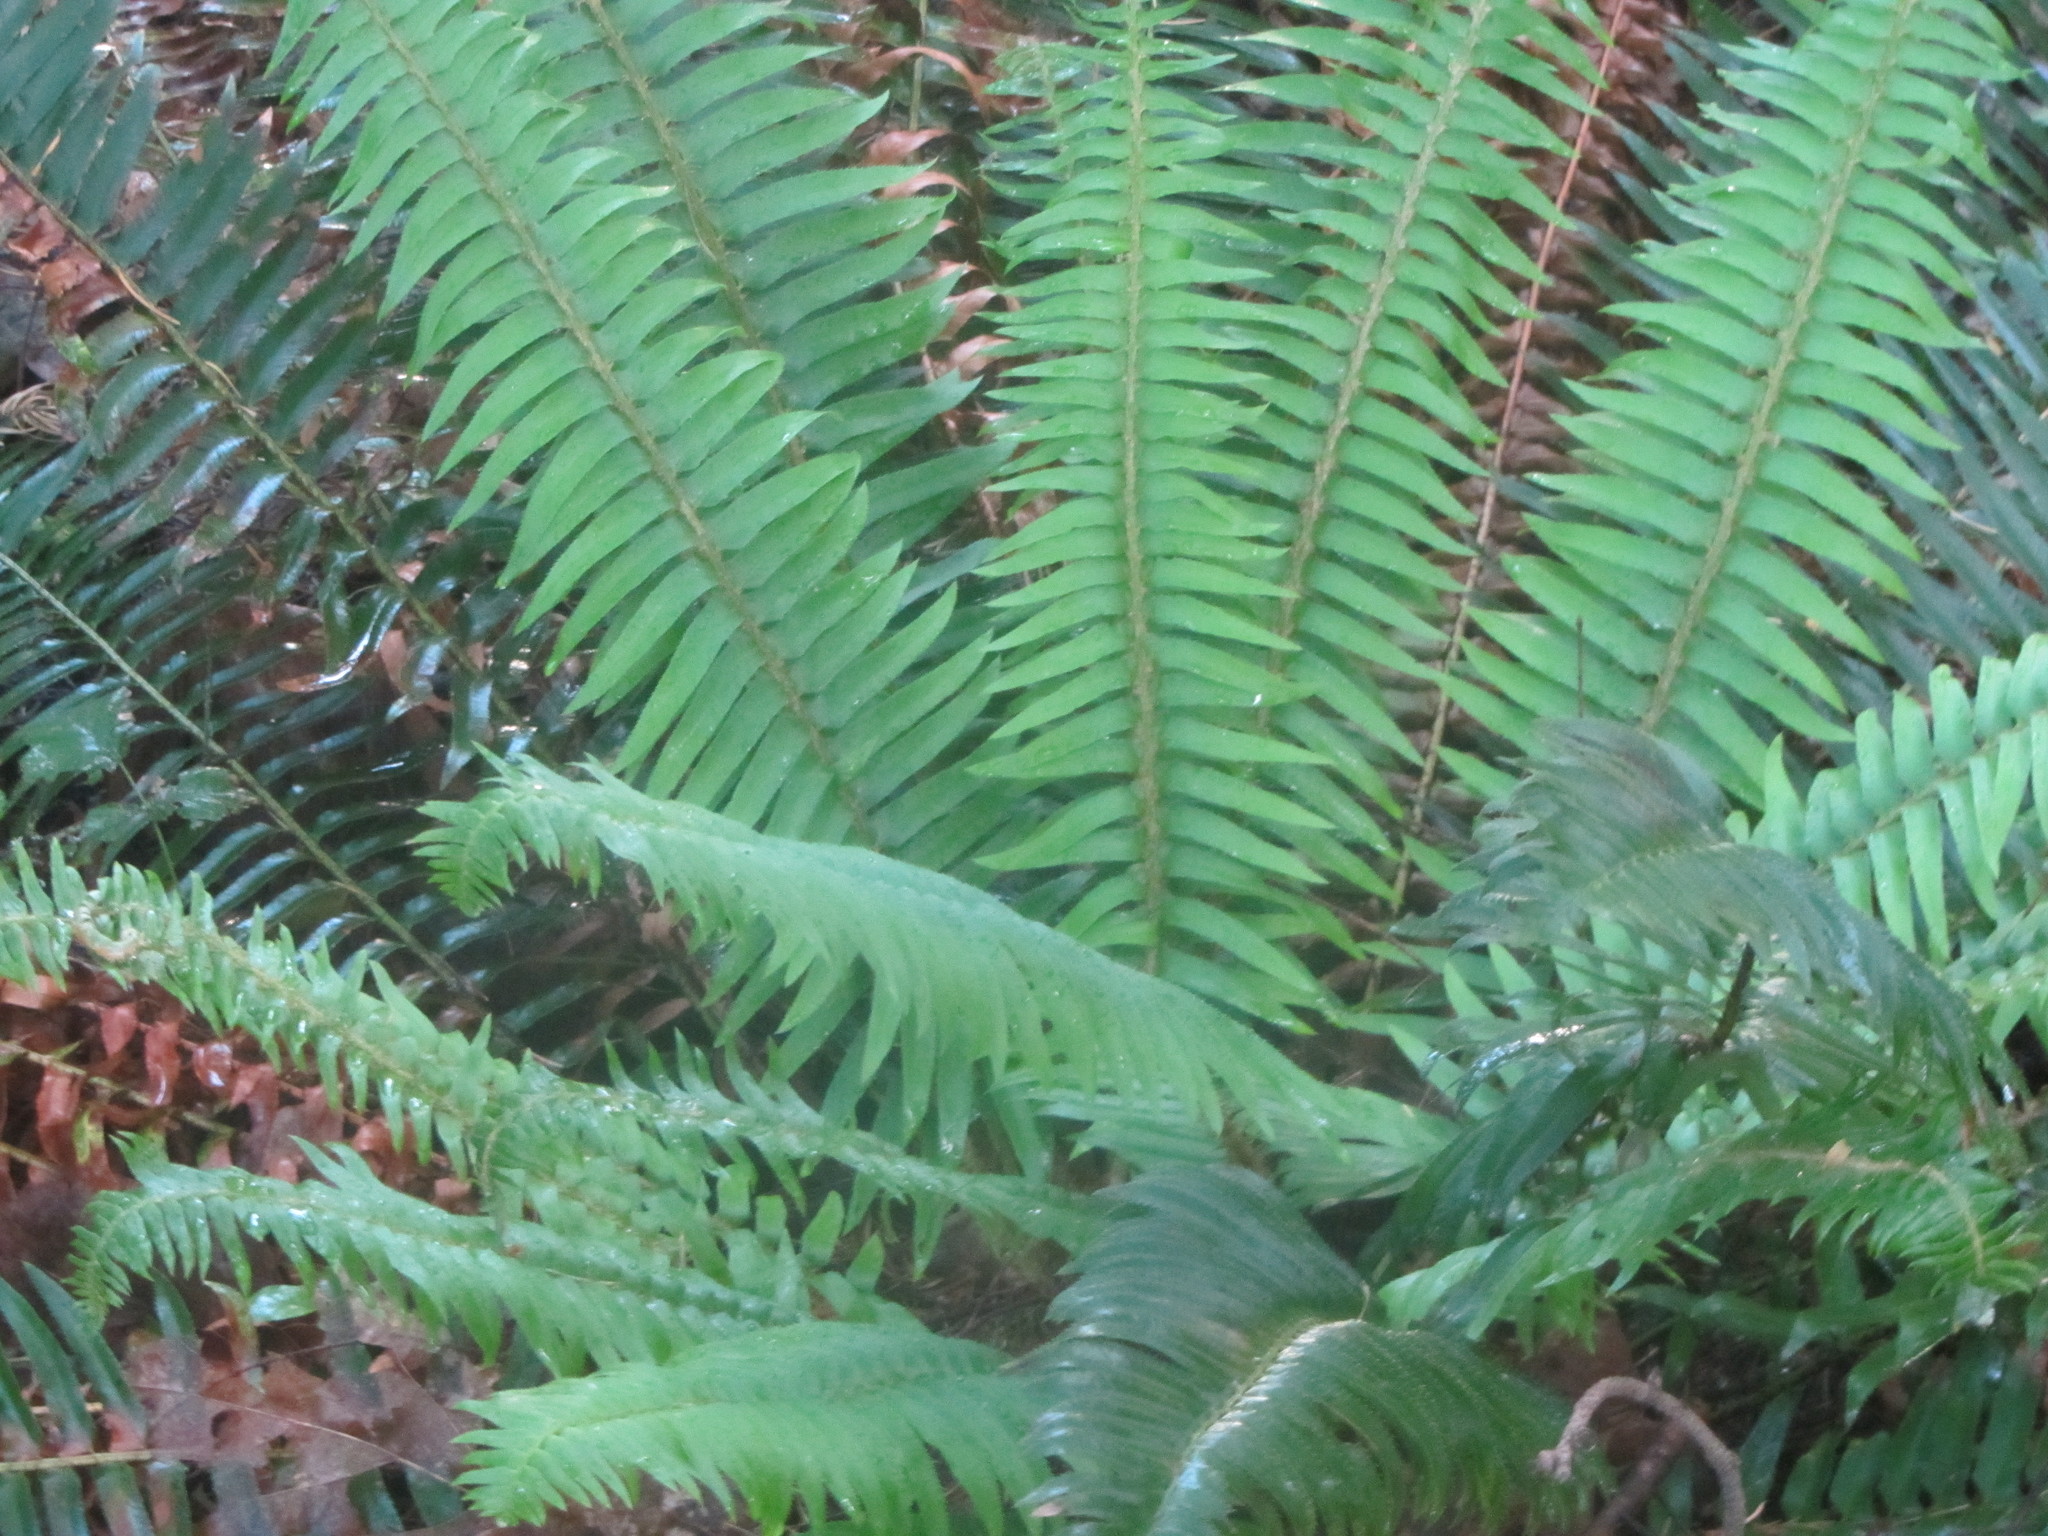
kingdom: Plantae
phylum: Tracheophyta
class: Polypodiopsida
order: Polypodiales
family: Dryopteridaceae
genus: Polystichum
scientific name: Polystichum munitum
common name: Western sword-fern
